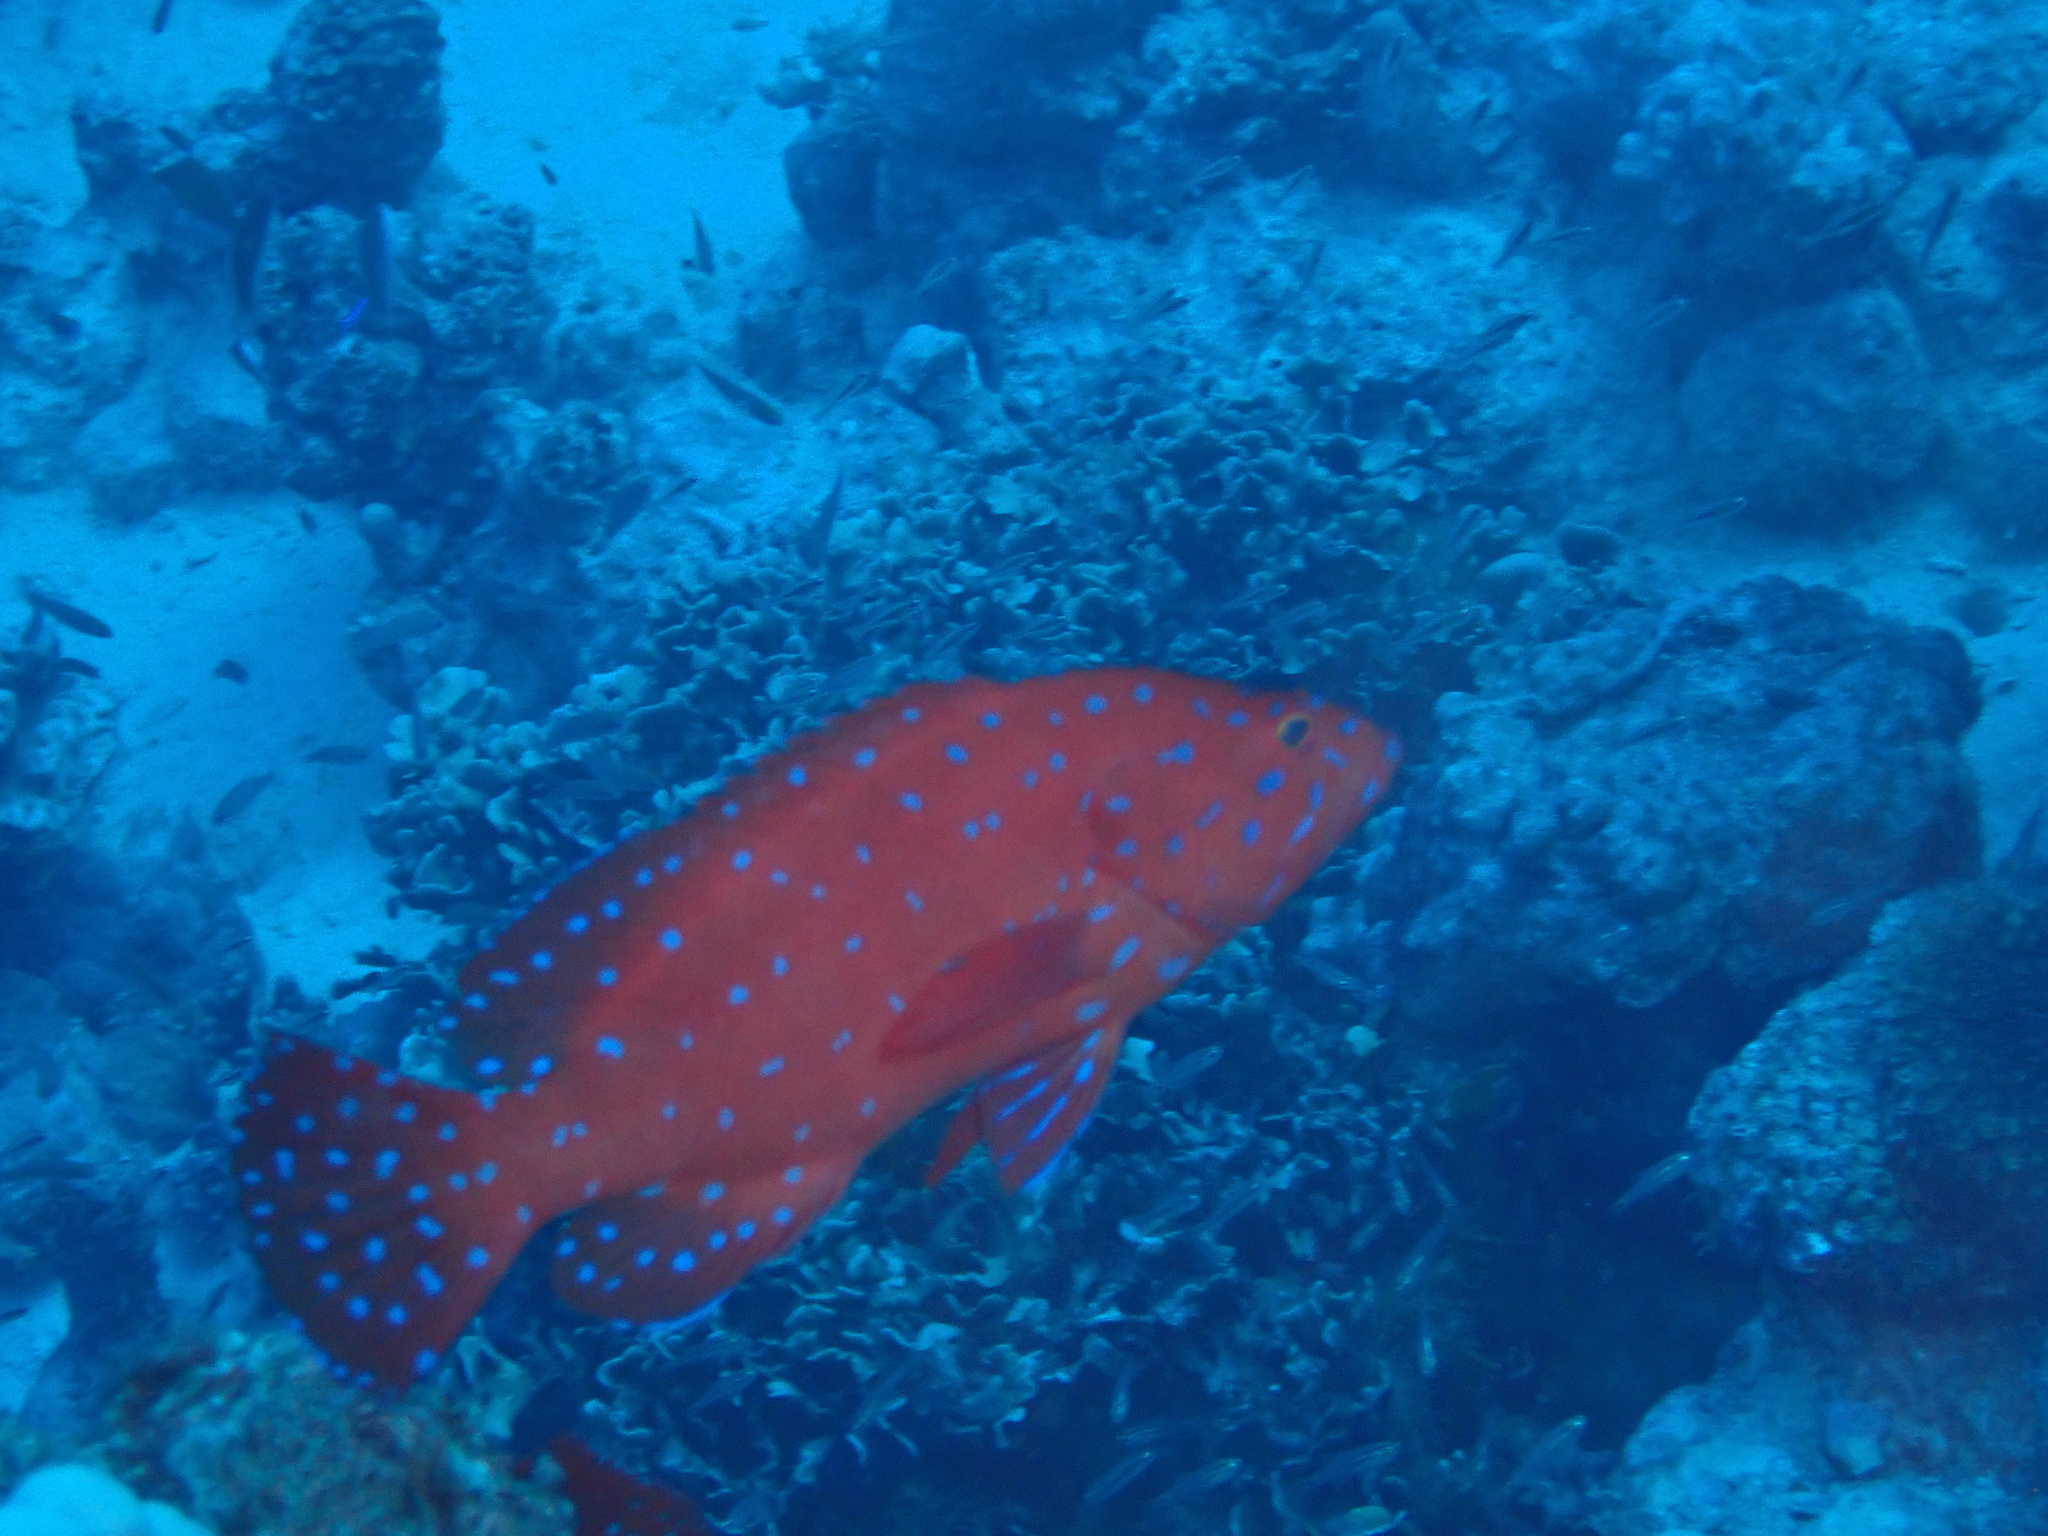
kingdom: Animalia
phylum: Chordata
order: Perciformes
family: Serranidae
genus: Cephalopholis
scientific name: Cephalopholis oligosticta
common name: Vermilion hind
